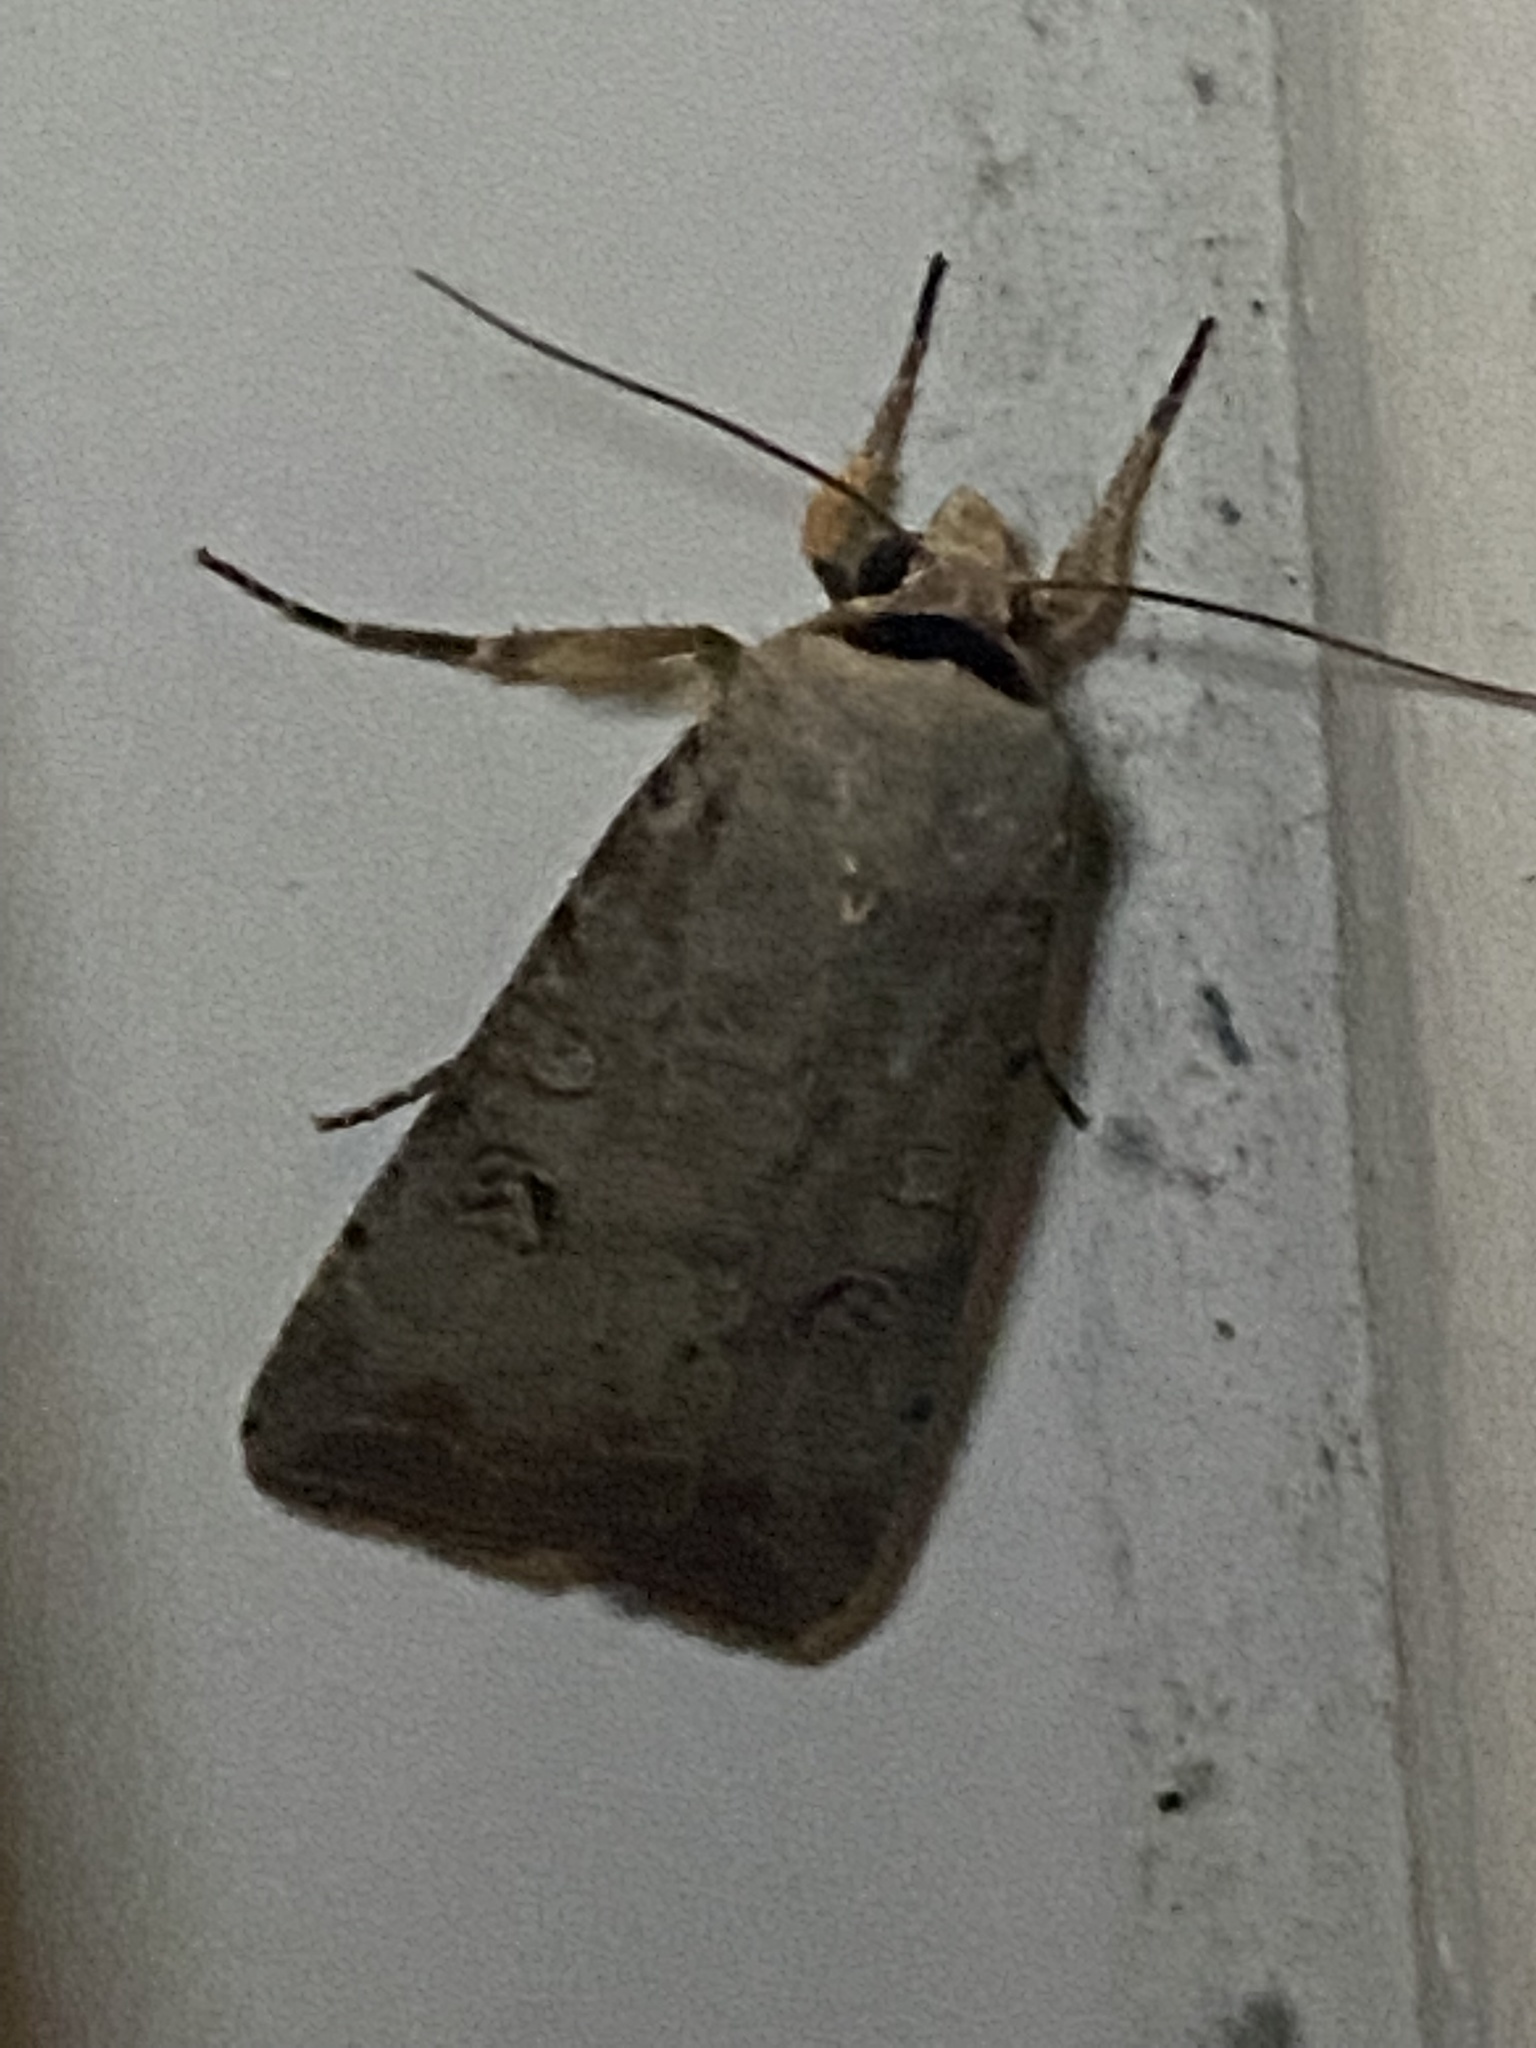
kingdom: Animalia
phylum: Arthropoda
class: Insecta
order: Lepidoptera
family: Noctuidae
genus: Anicla
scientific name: Anicla infecta
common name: Green cutworm
